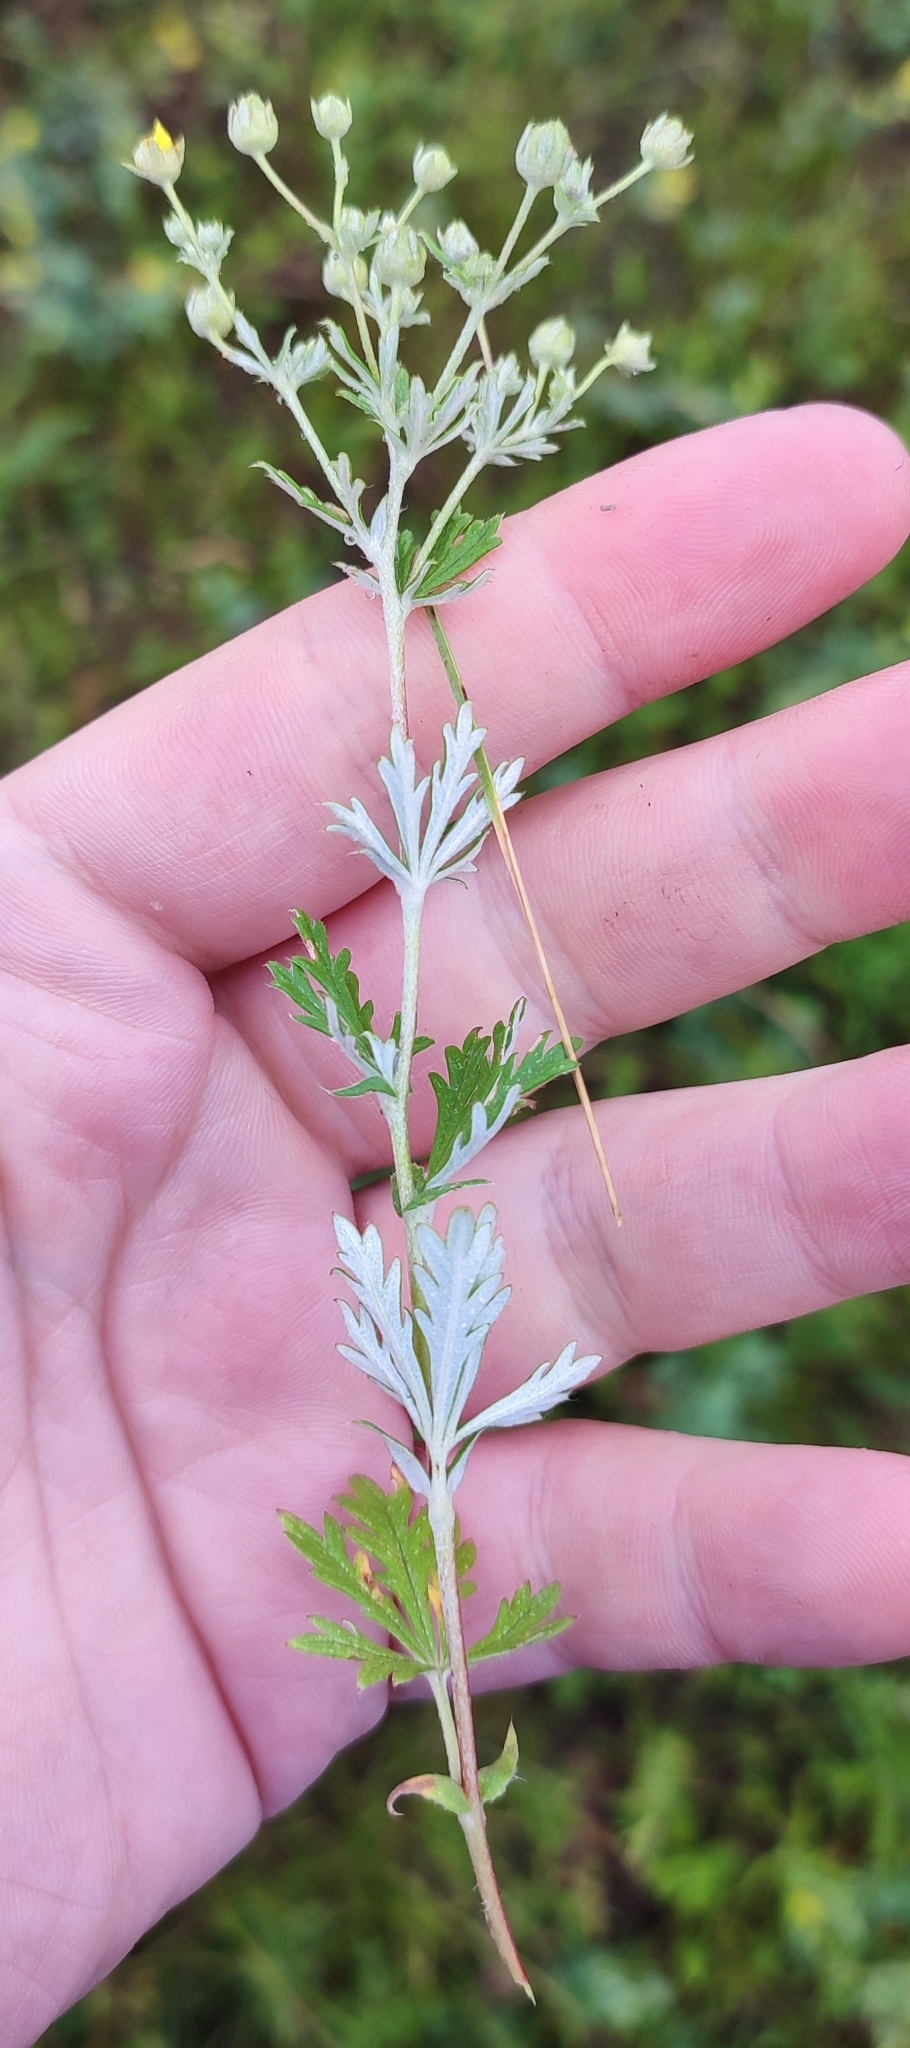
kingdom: Plantae
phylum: Tracheophyta
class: Magnoliopsida
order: Rosales
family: Rosaceae
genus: Potentilla
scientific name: Potentilla argentea
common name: Hoary cinquefoil
